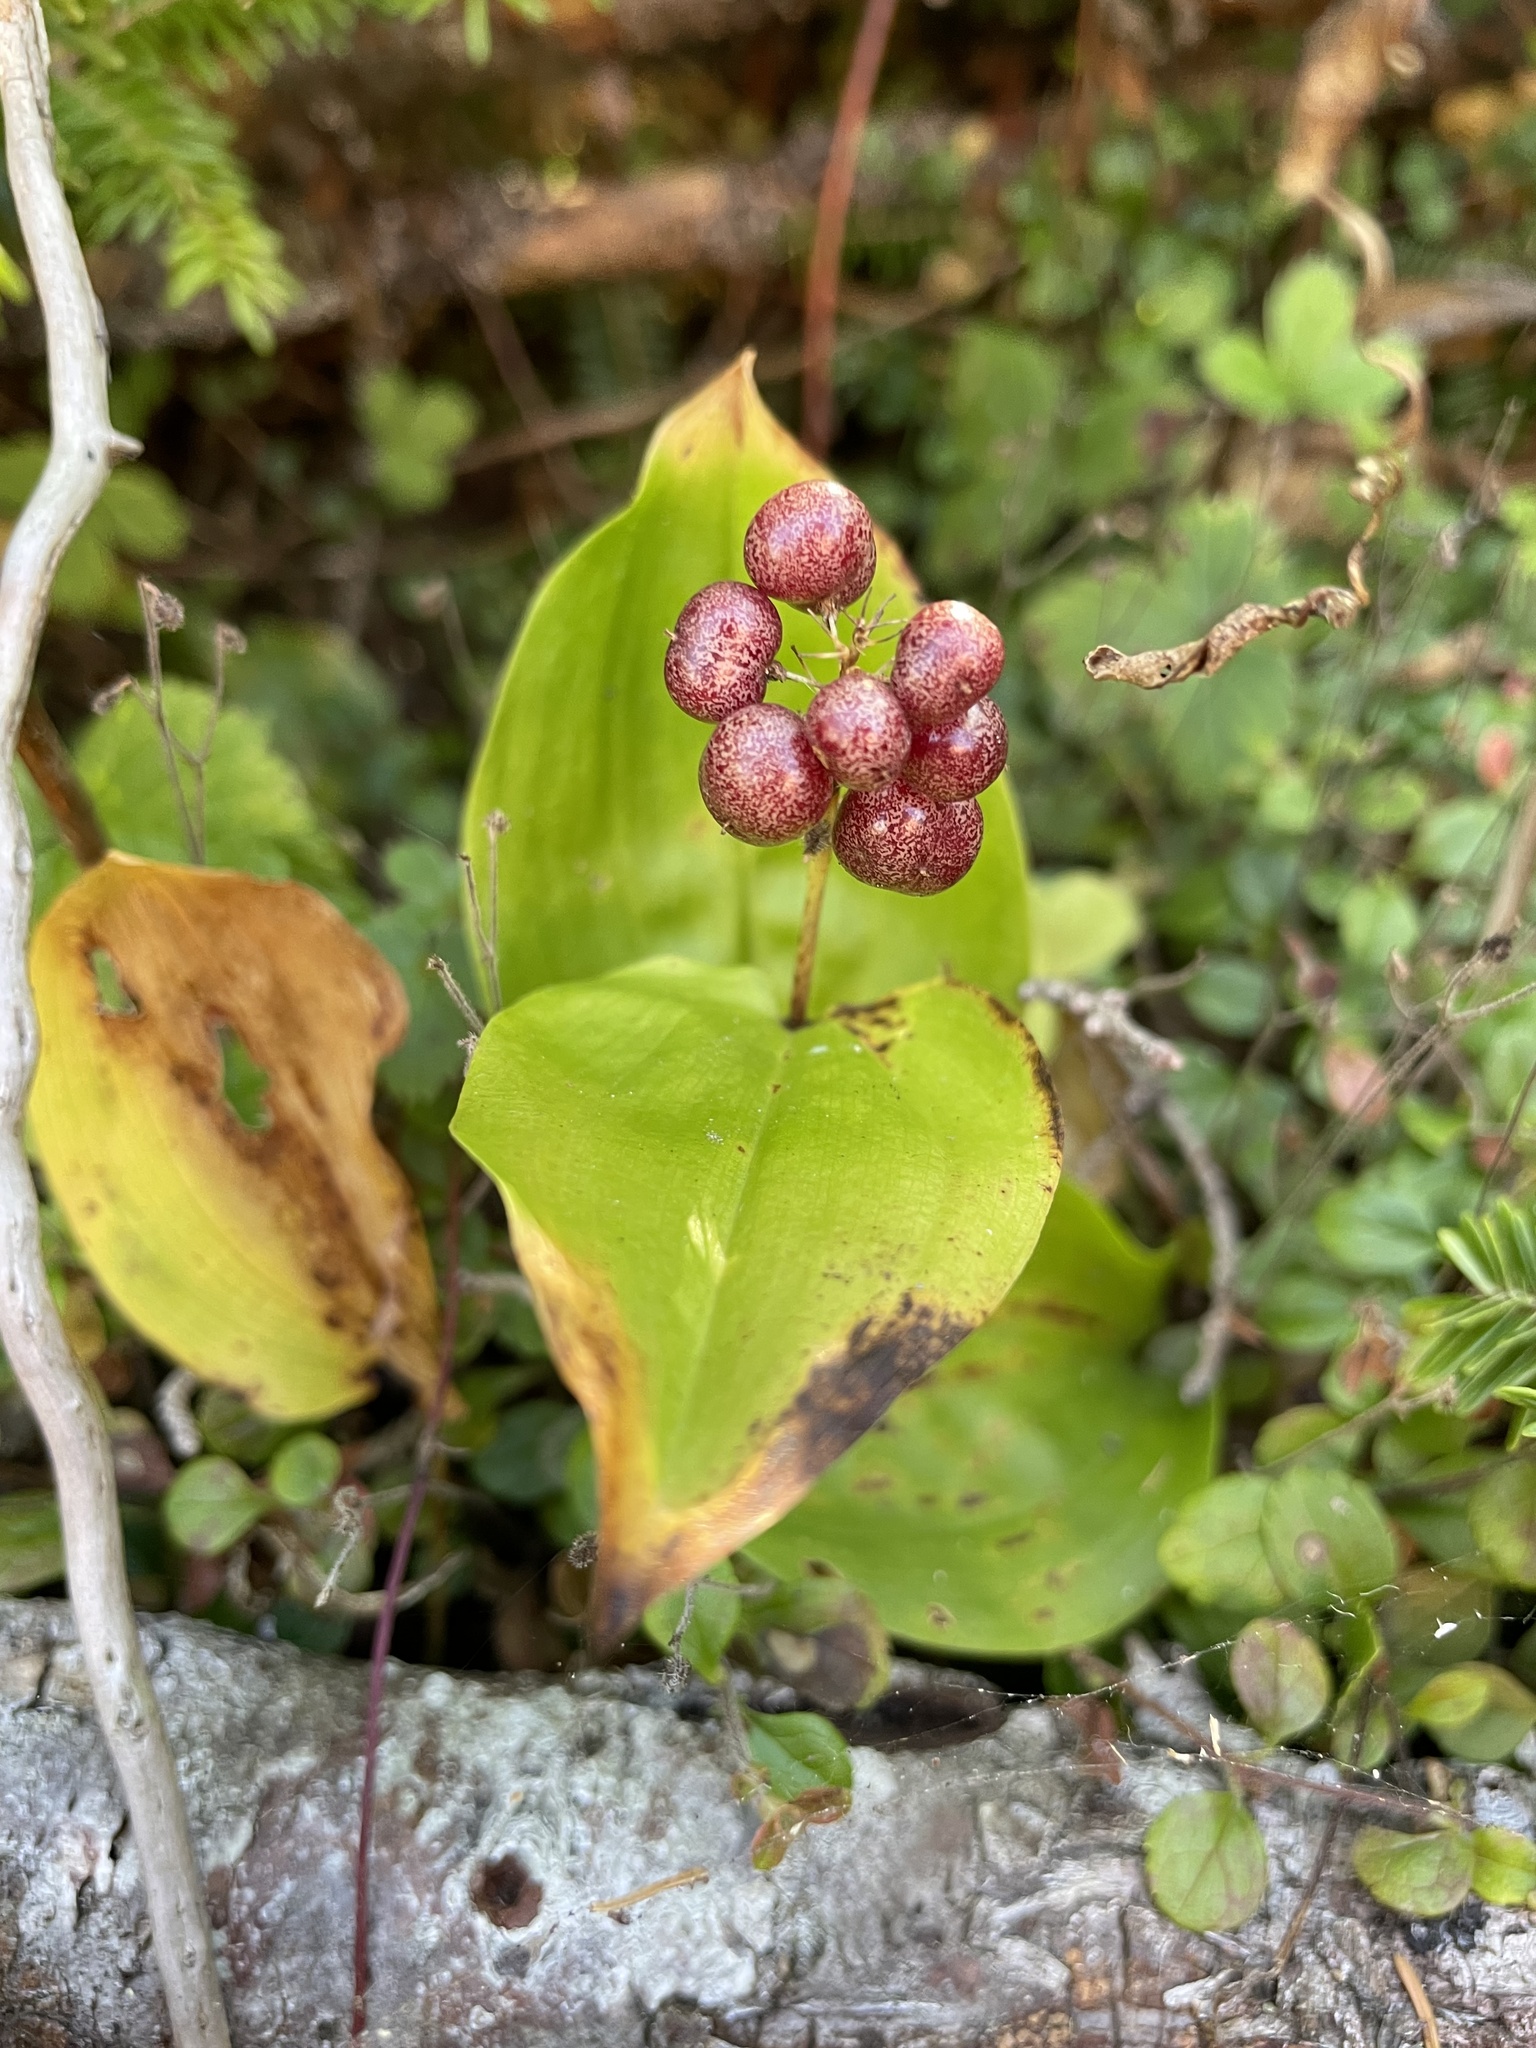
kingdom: Plantae
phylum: Tracheophyta
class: Liliopsida
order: Asparagales
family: Asparagaceae
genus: Maianthemum
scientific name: Maianthemum canadense
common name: False lily-of-the-valley
